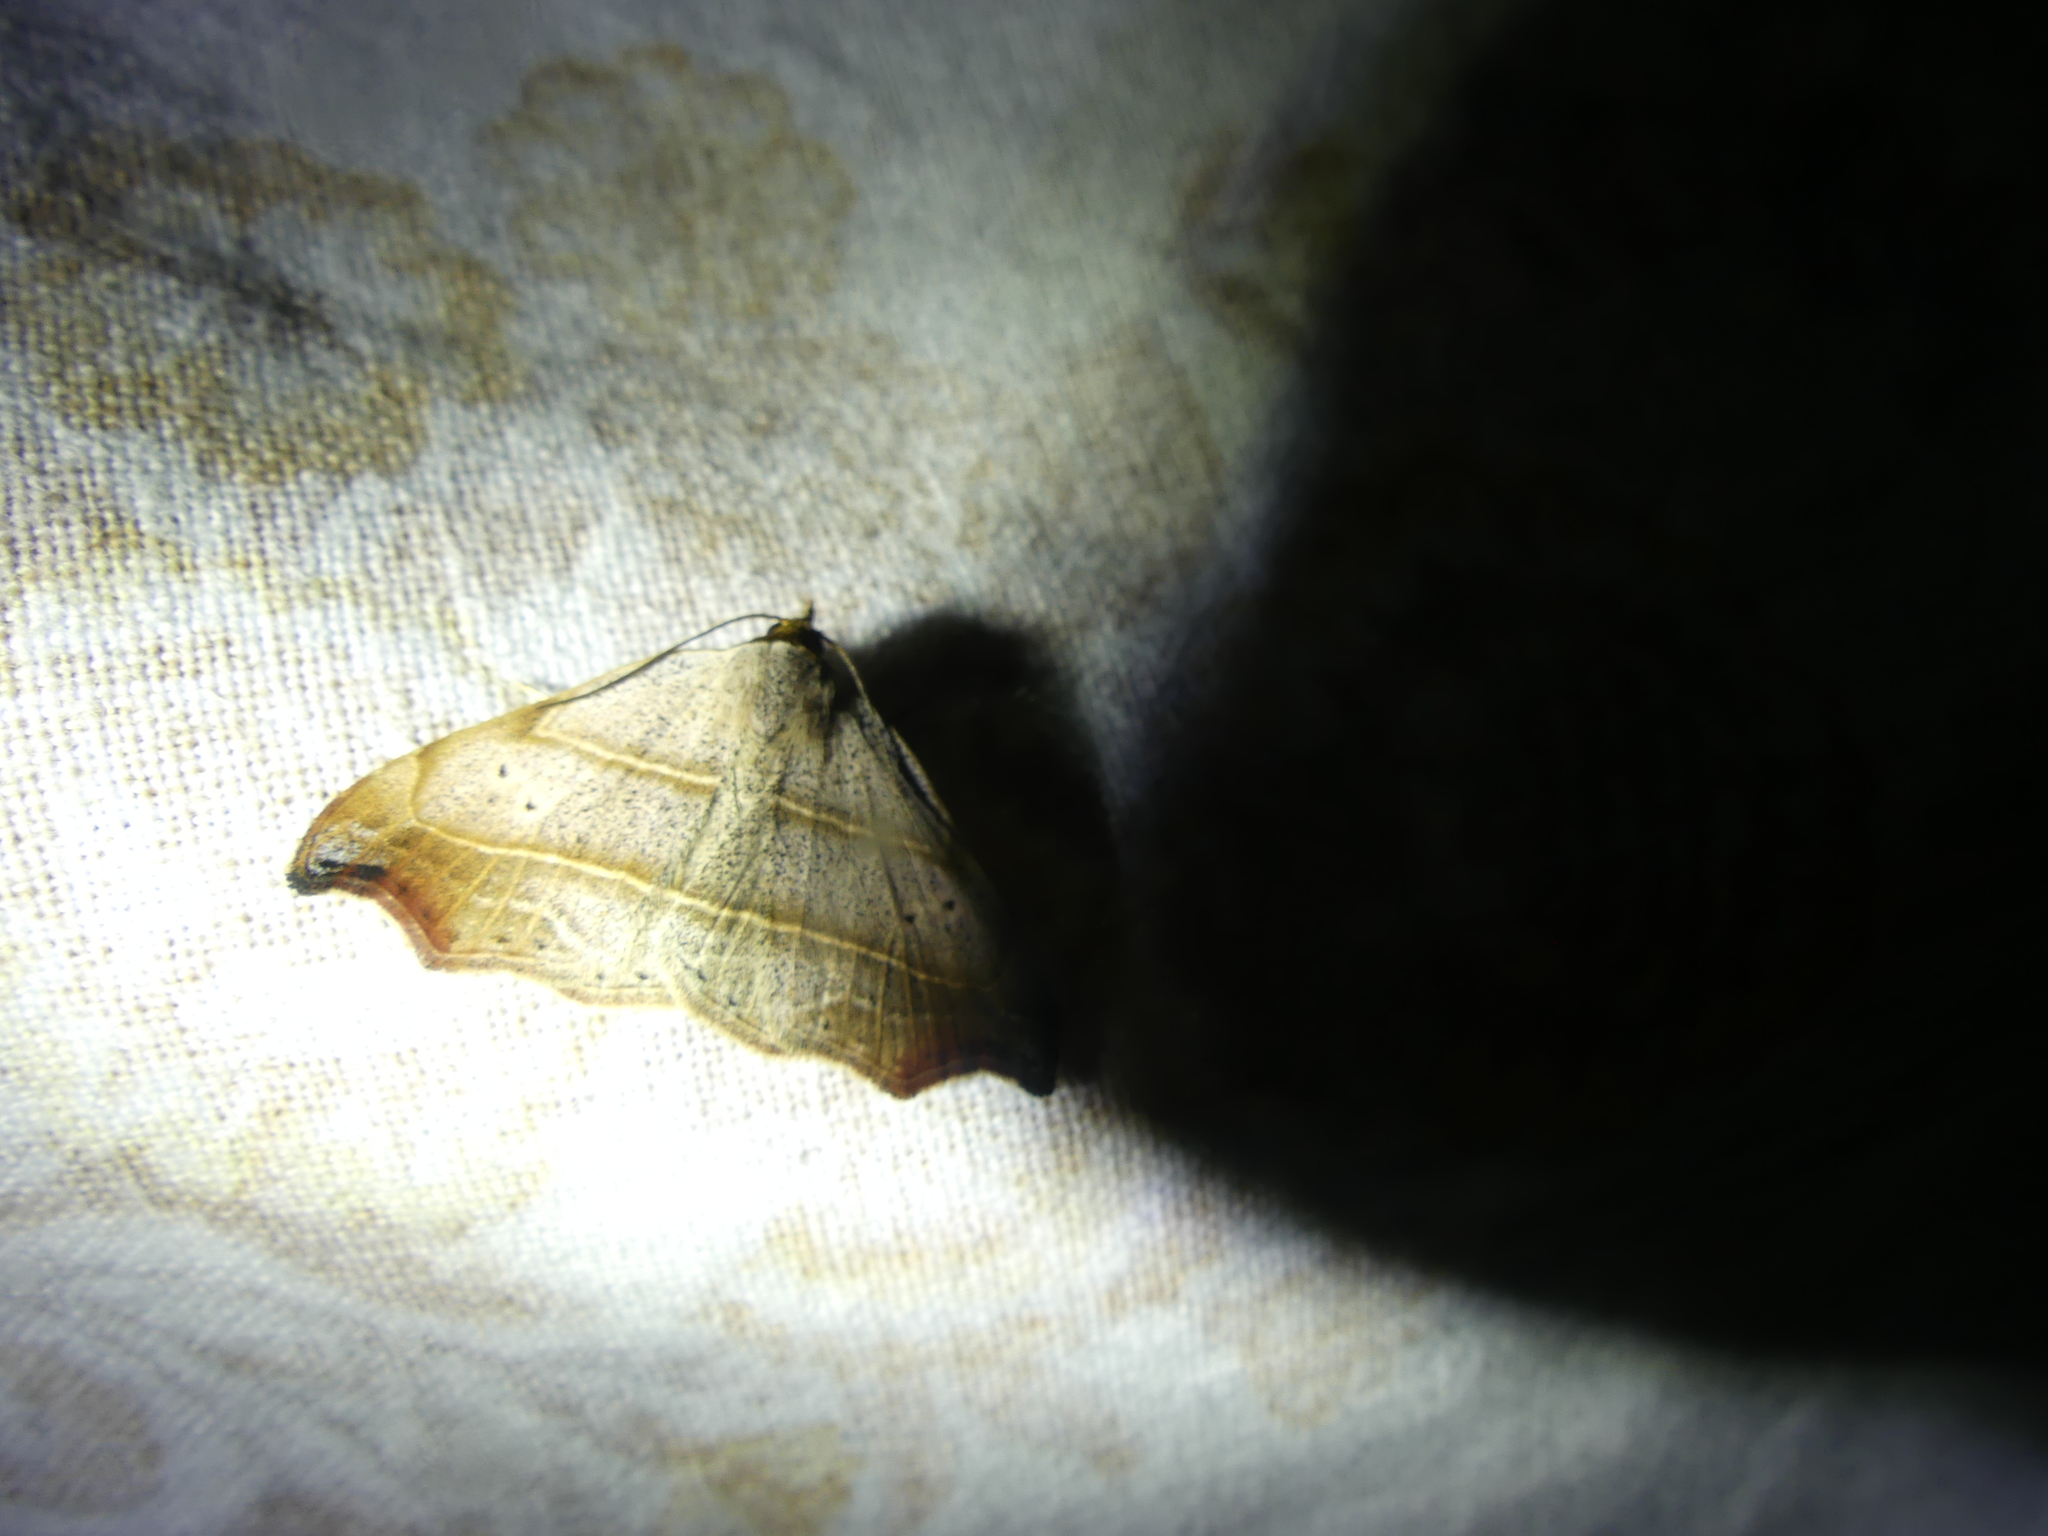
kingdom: Animalia
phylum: Arthropoda
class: Insecta
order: Lepidoptera
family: Erebidae
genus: Laspeyria
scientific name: Laspeyria flexula
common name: Beautiful hook-tip
